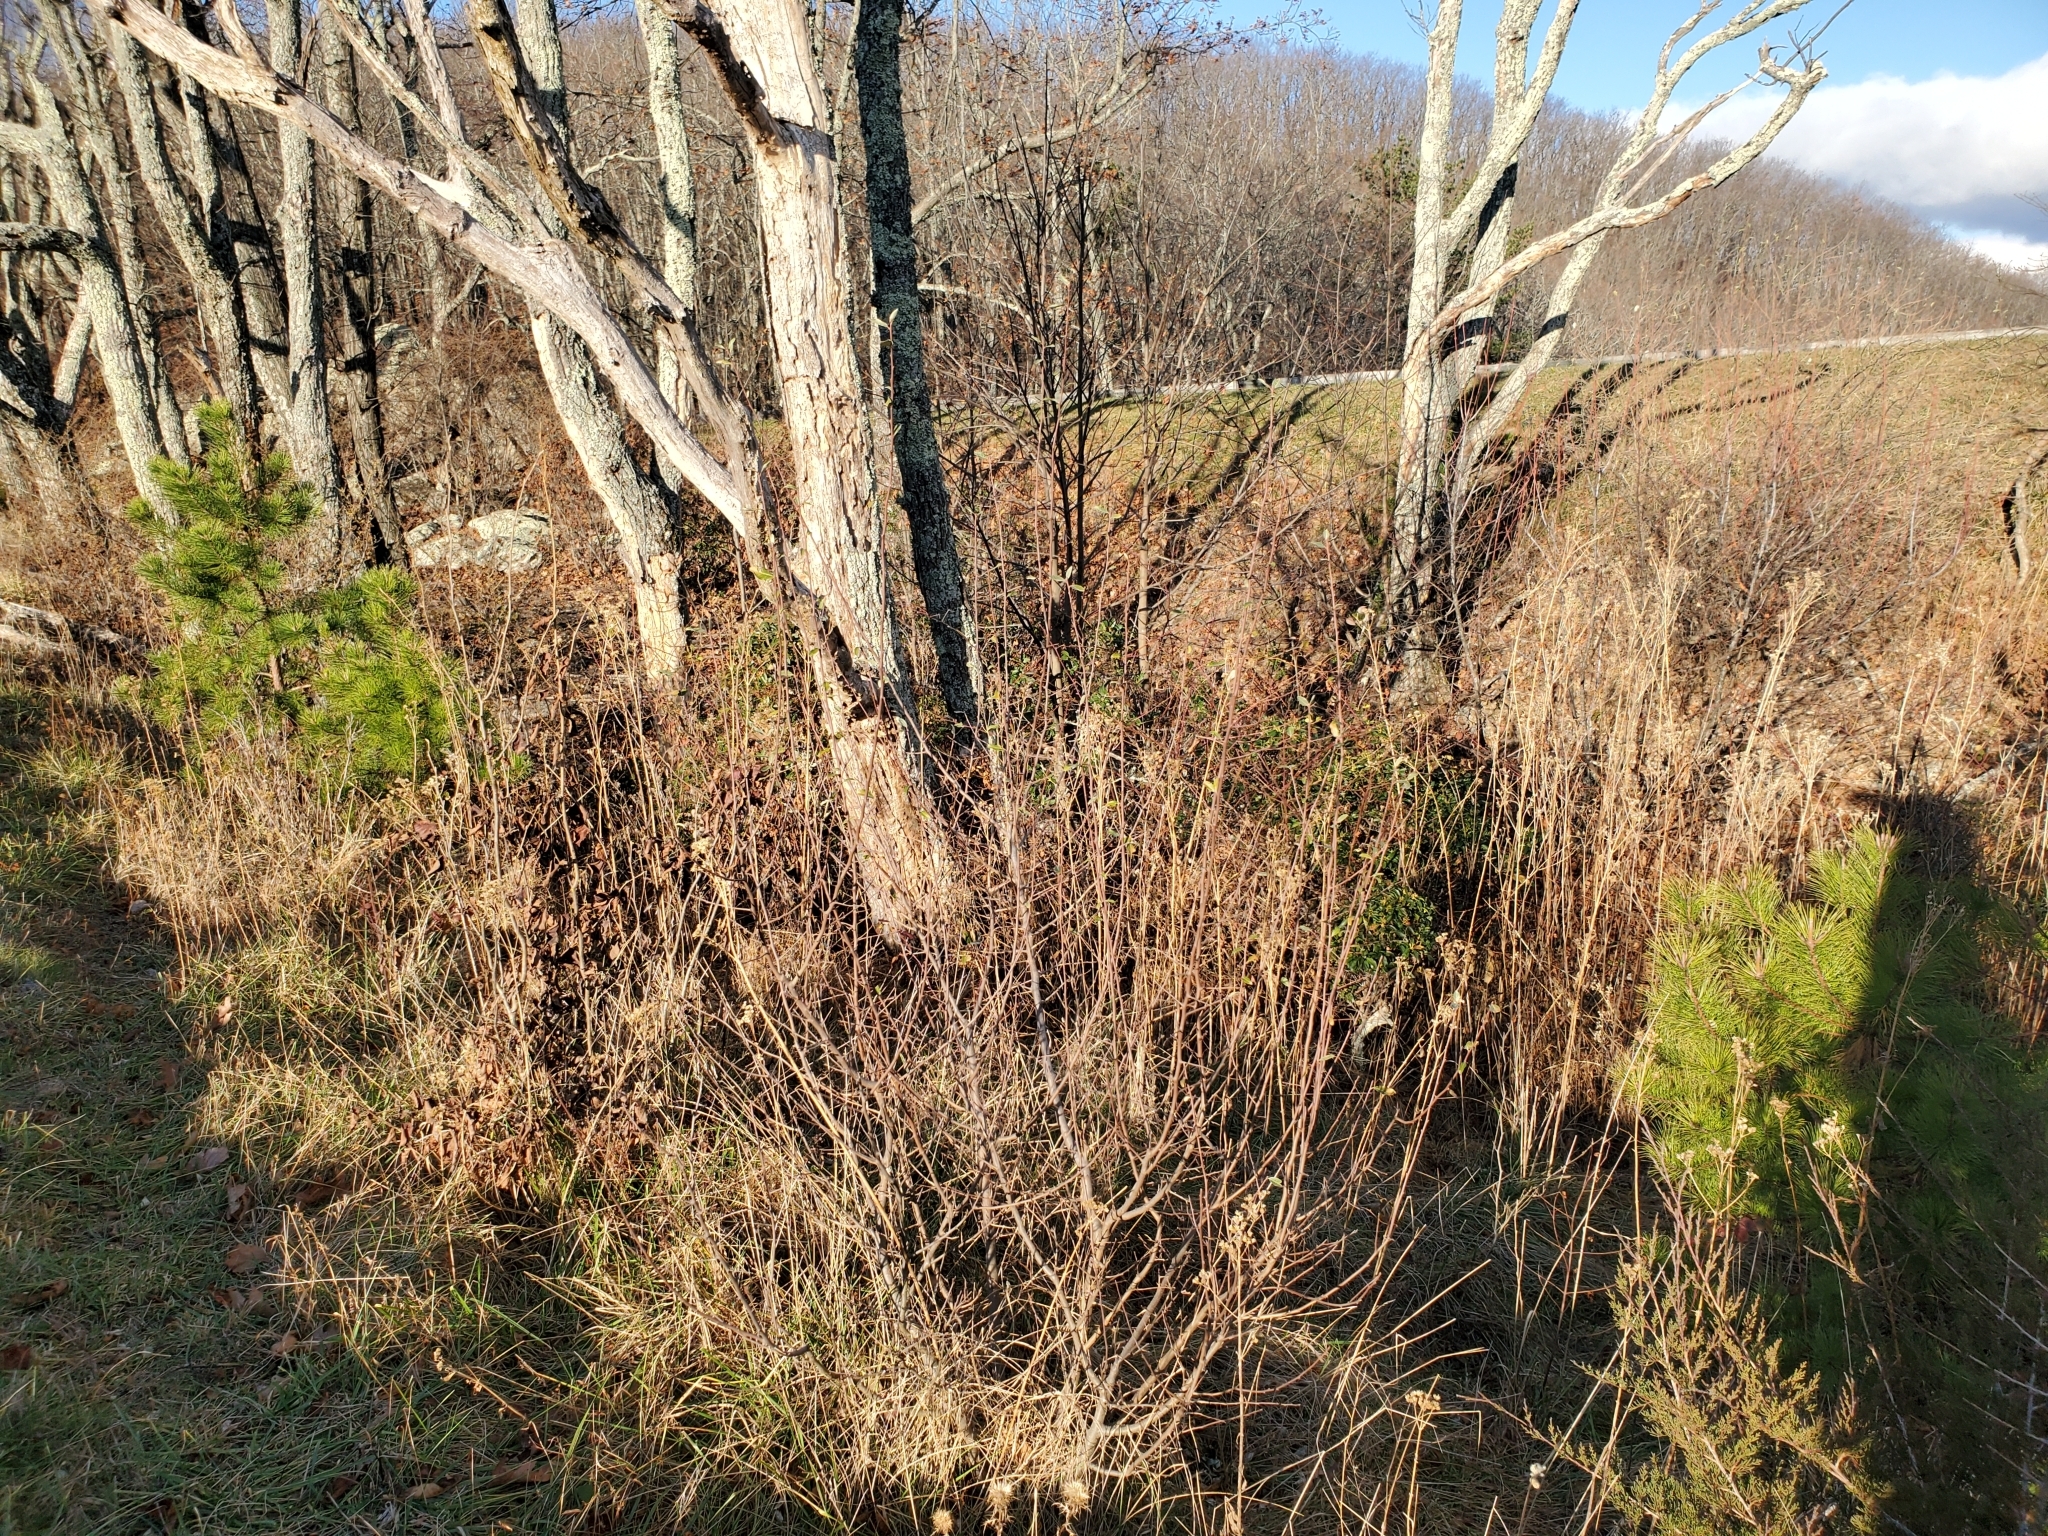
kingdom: Plantae
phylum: Tracheophyta
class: Magnoliopsida
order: Rosales
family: Elaeagnaceae
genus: Elaeagnus
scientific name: Elaeagnus umbellata
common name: Autumn olive
